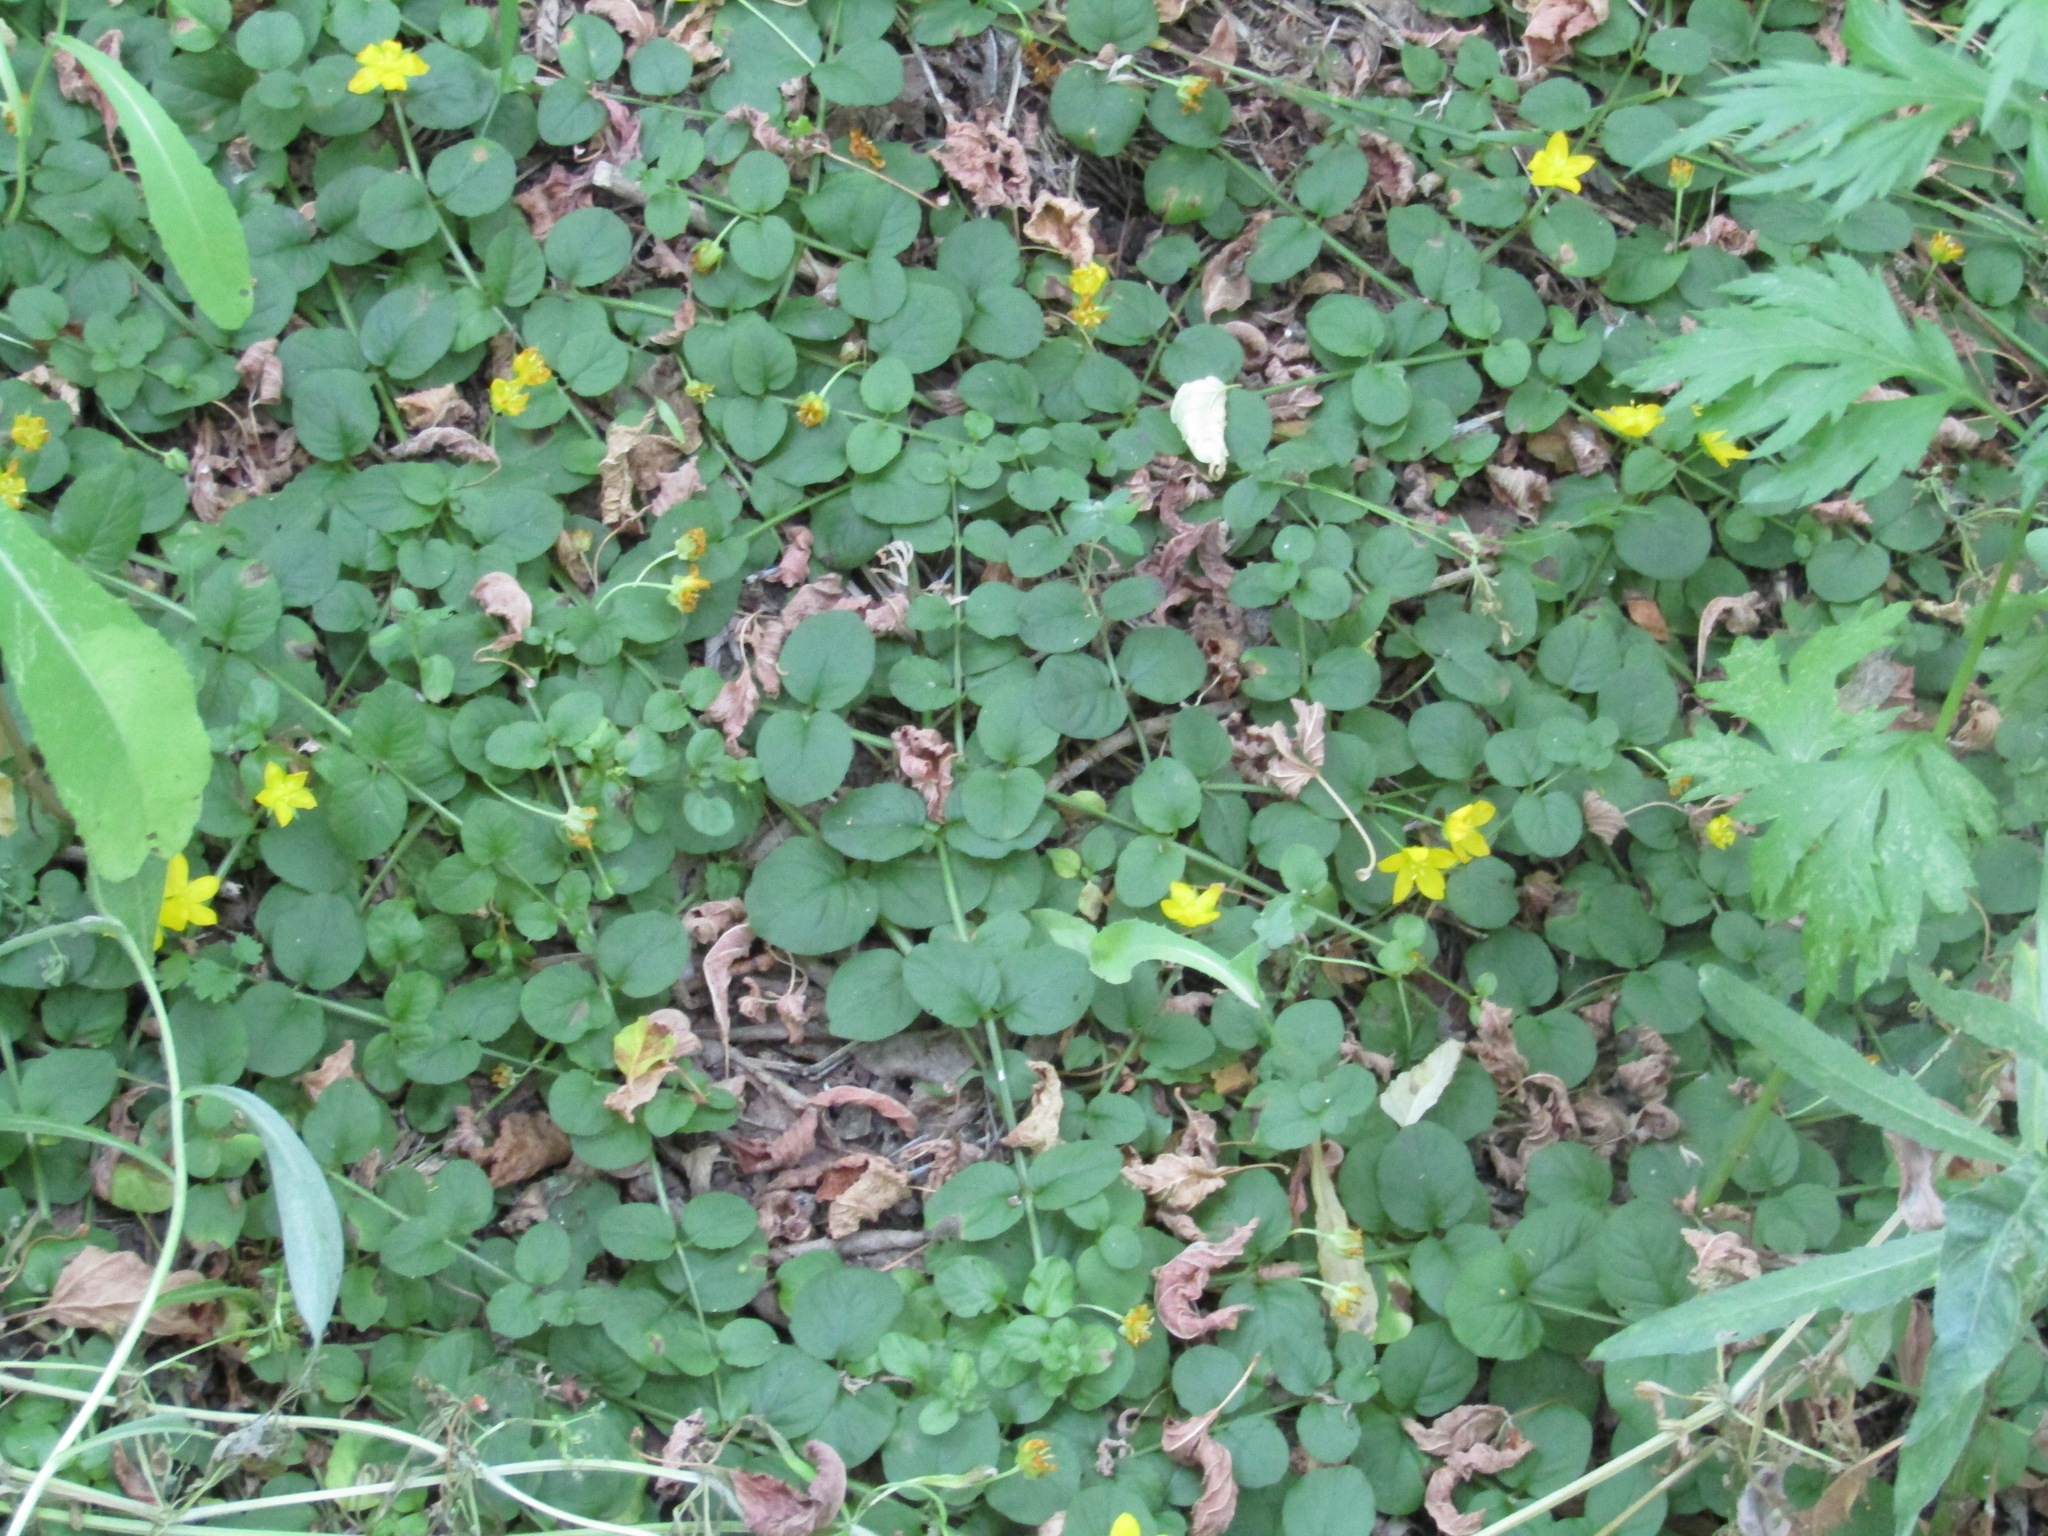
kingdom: Plantae
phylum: Tracheophyta
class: Magnoliopsida
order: Ericales
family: Primulaceae
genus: Lysimachia
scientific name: Lysimachia nummularia
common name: Moneywort
